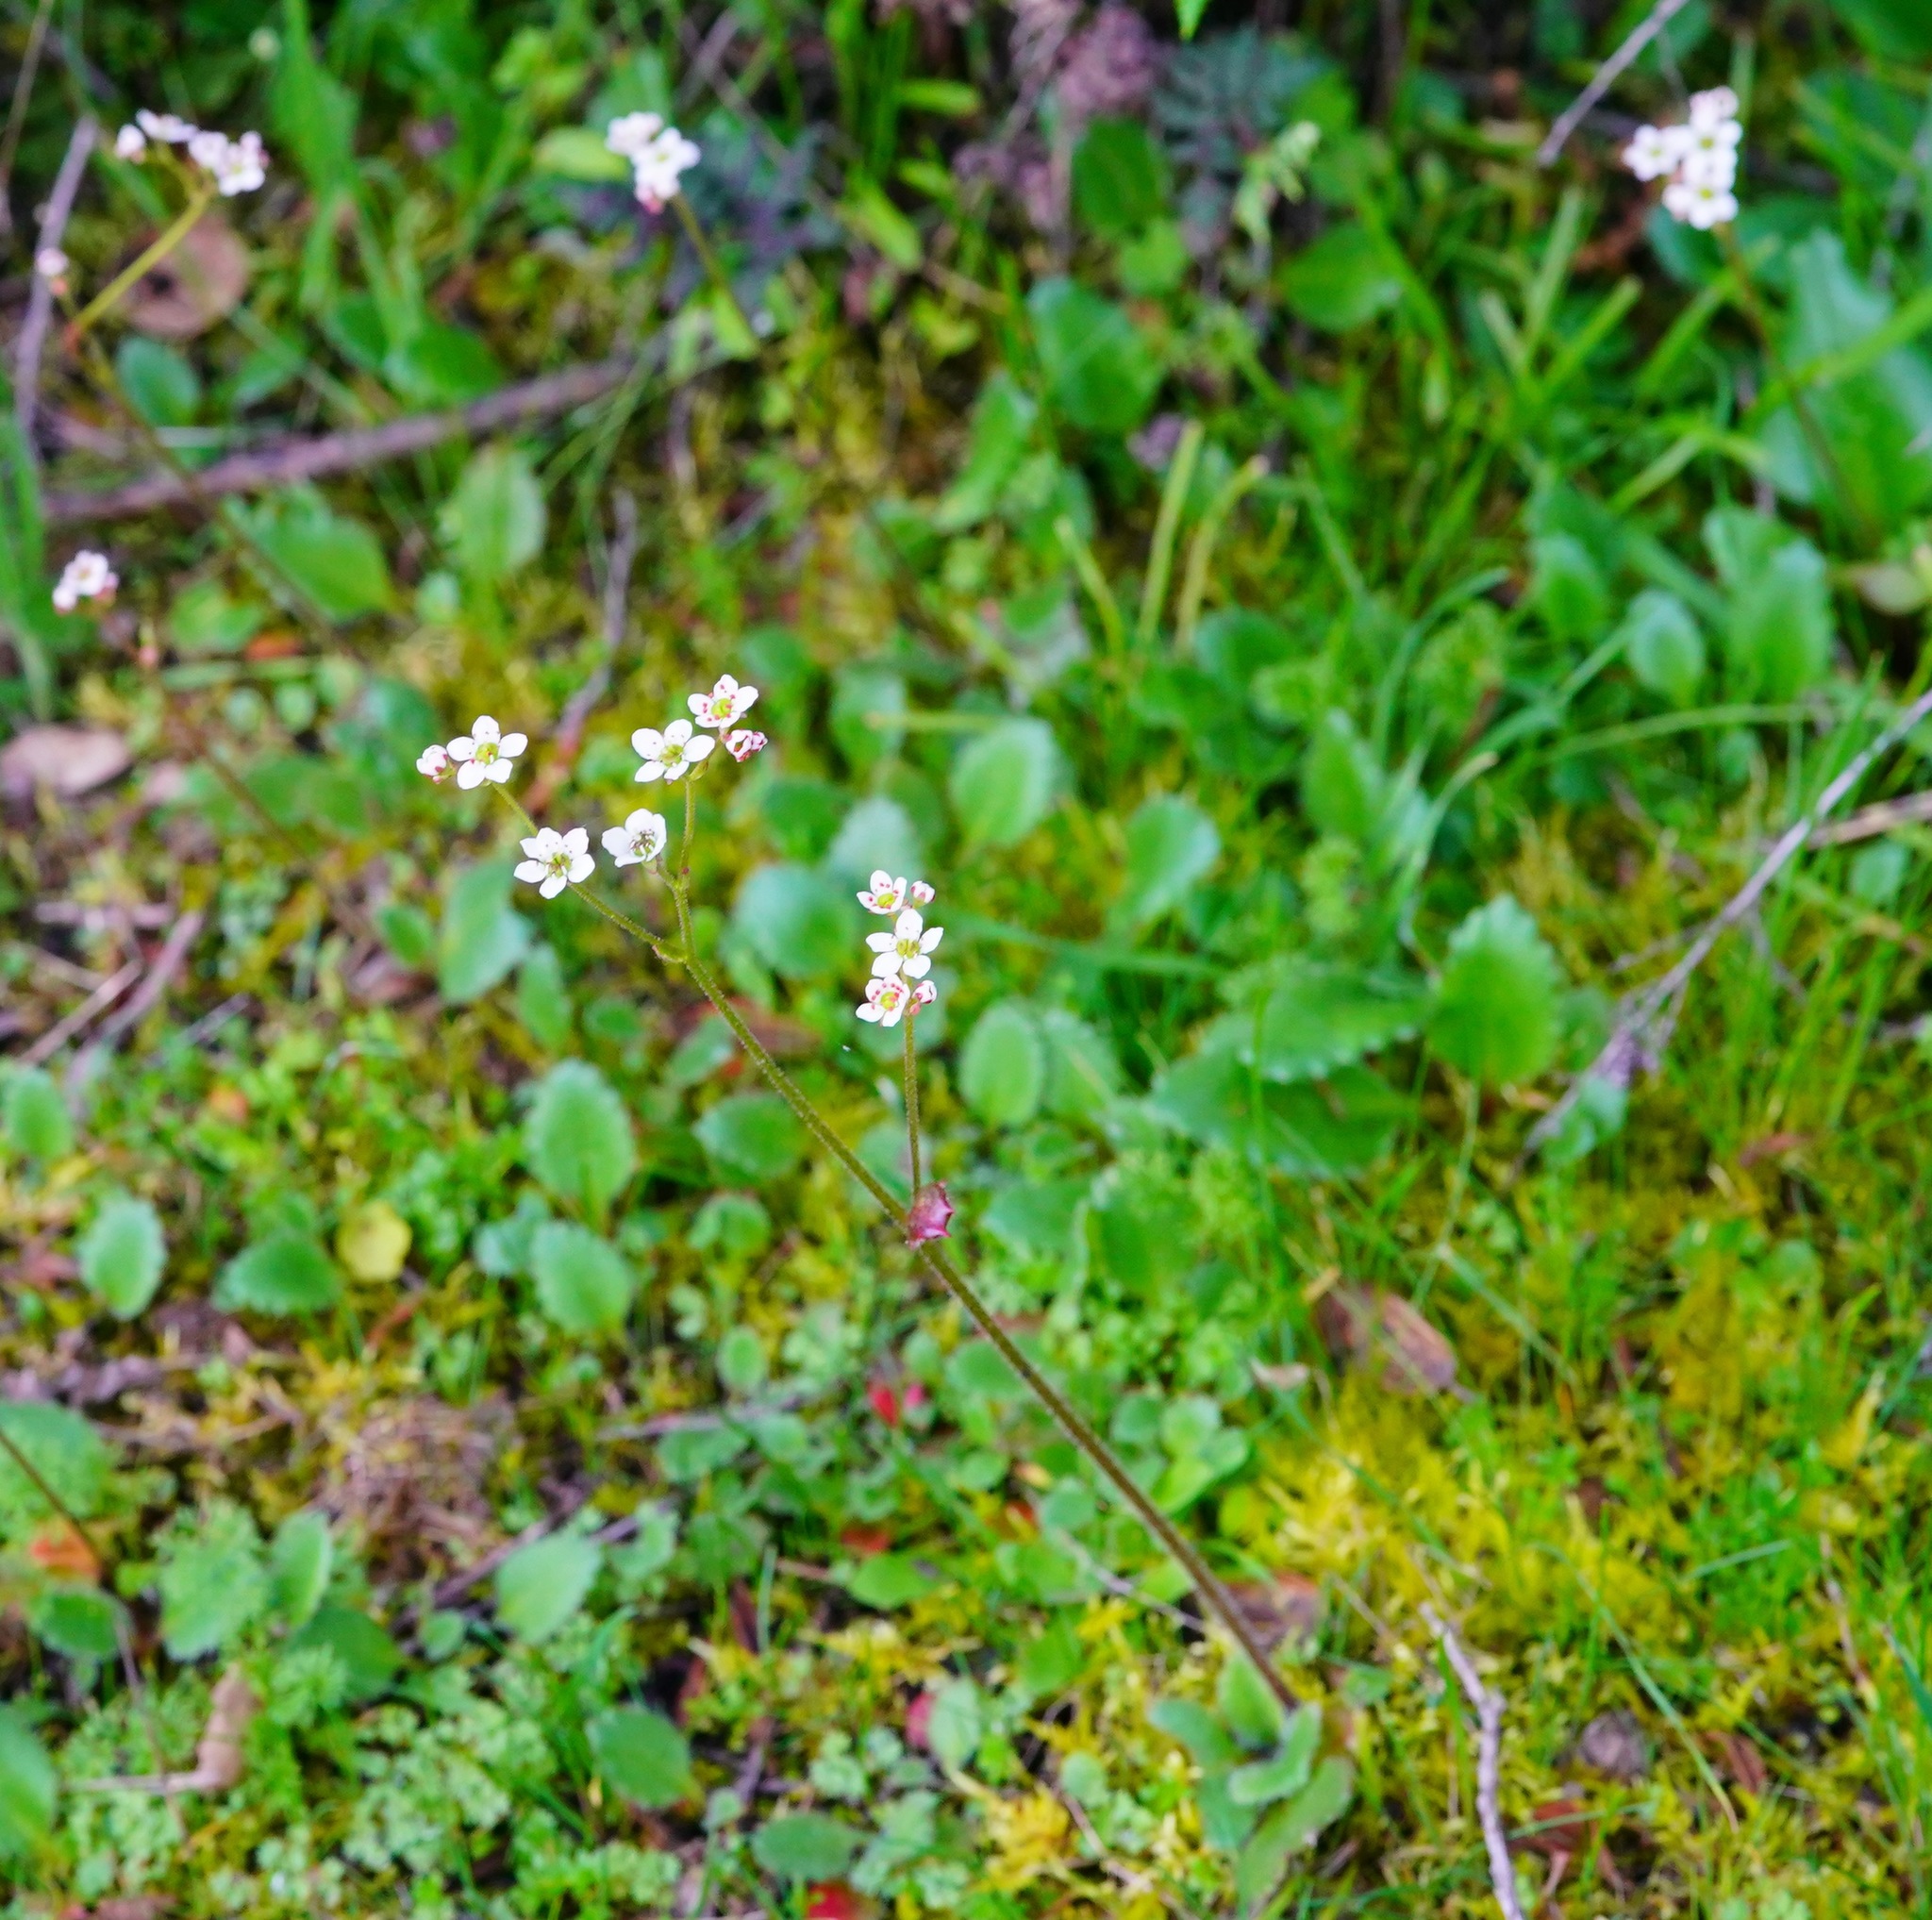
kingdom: Plantae
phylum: Tracheophyta
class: Magnoliopsida
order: Saxifragales
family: Saxifragaceae
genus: Micranthes
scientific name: Micranthes californica
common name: California saxifrage
